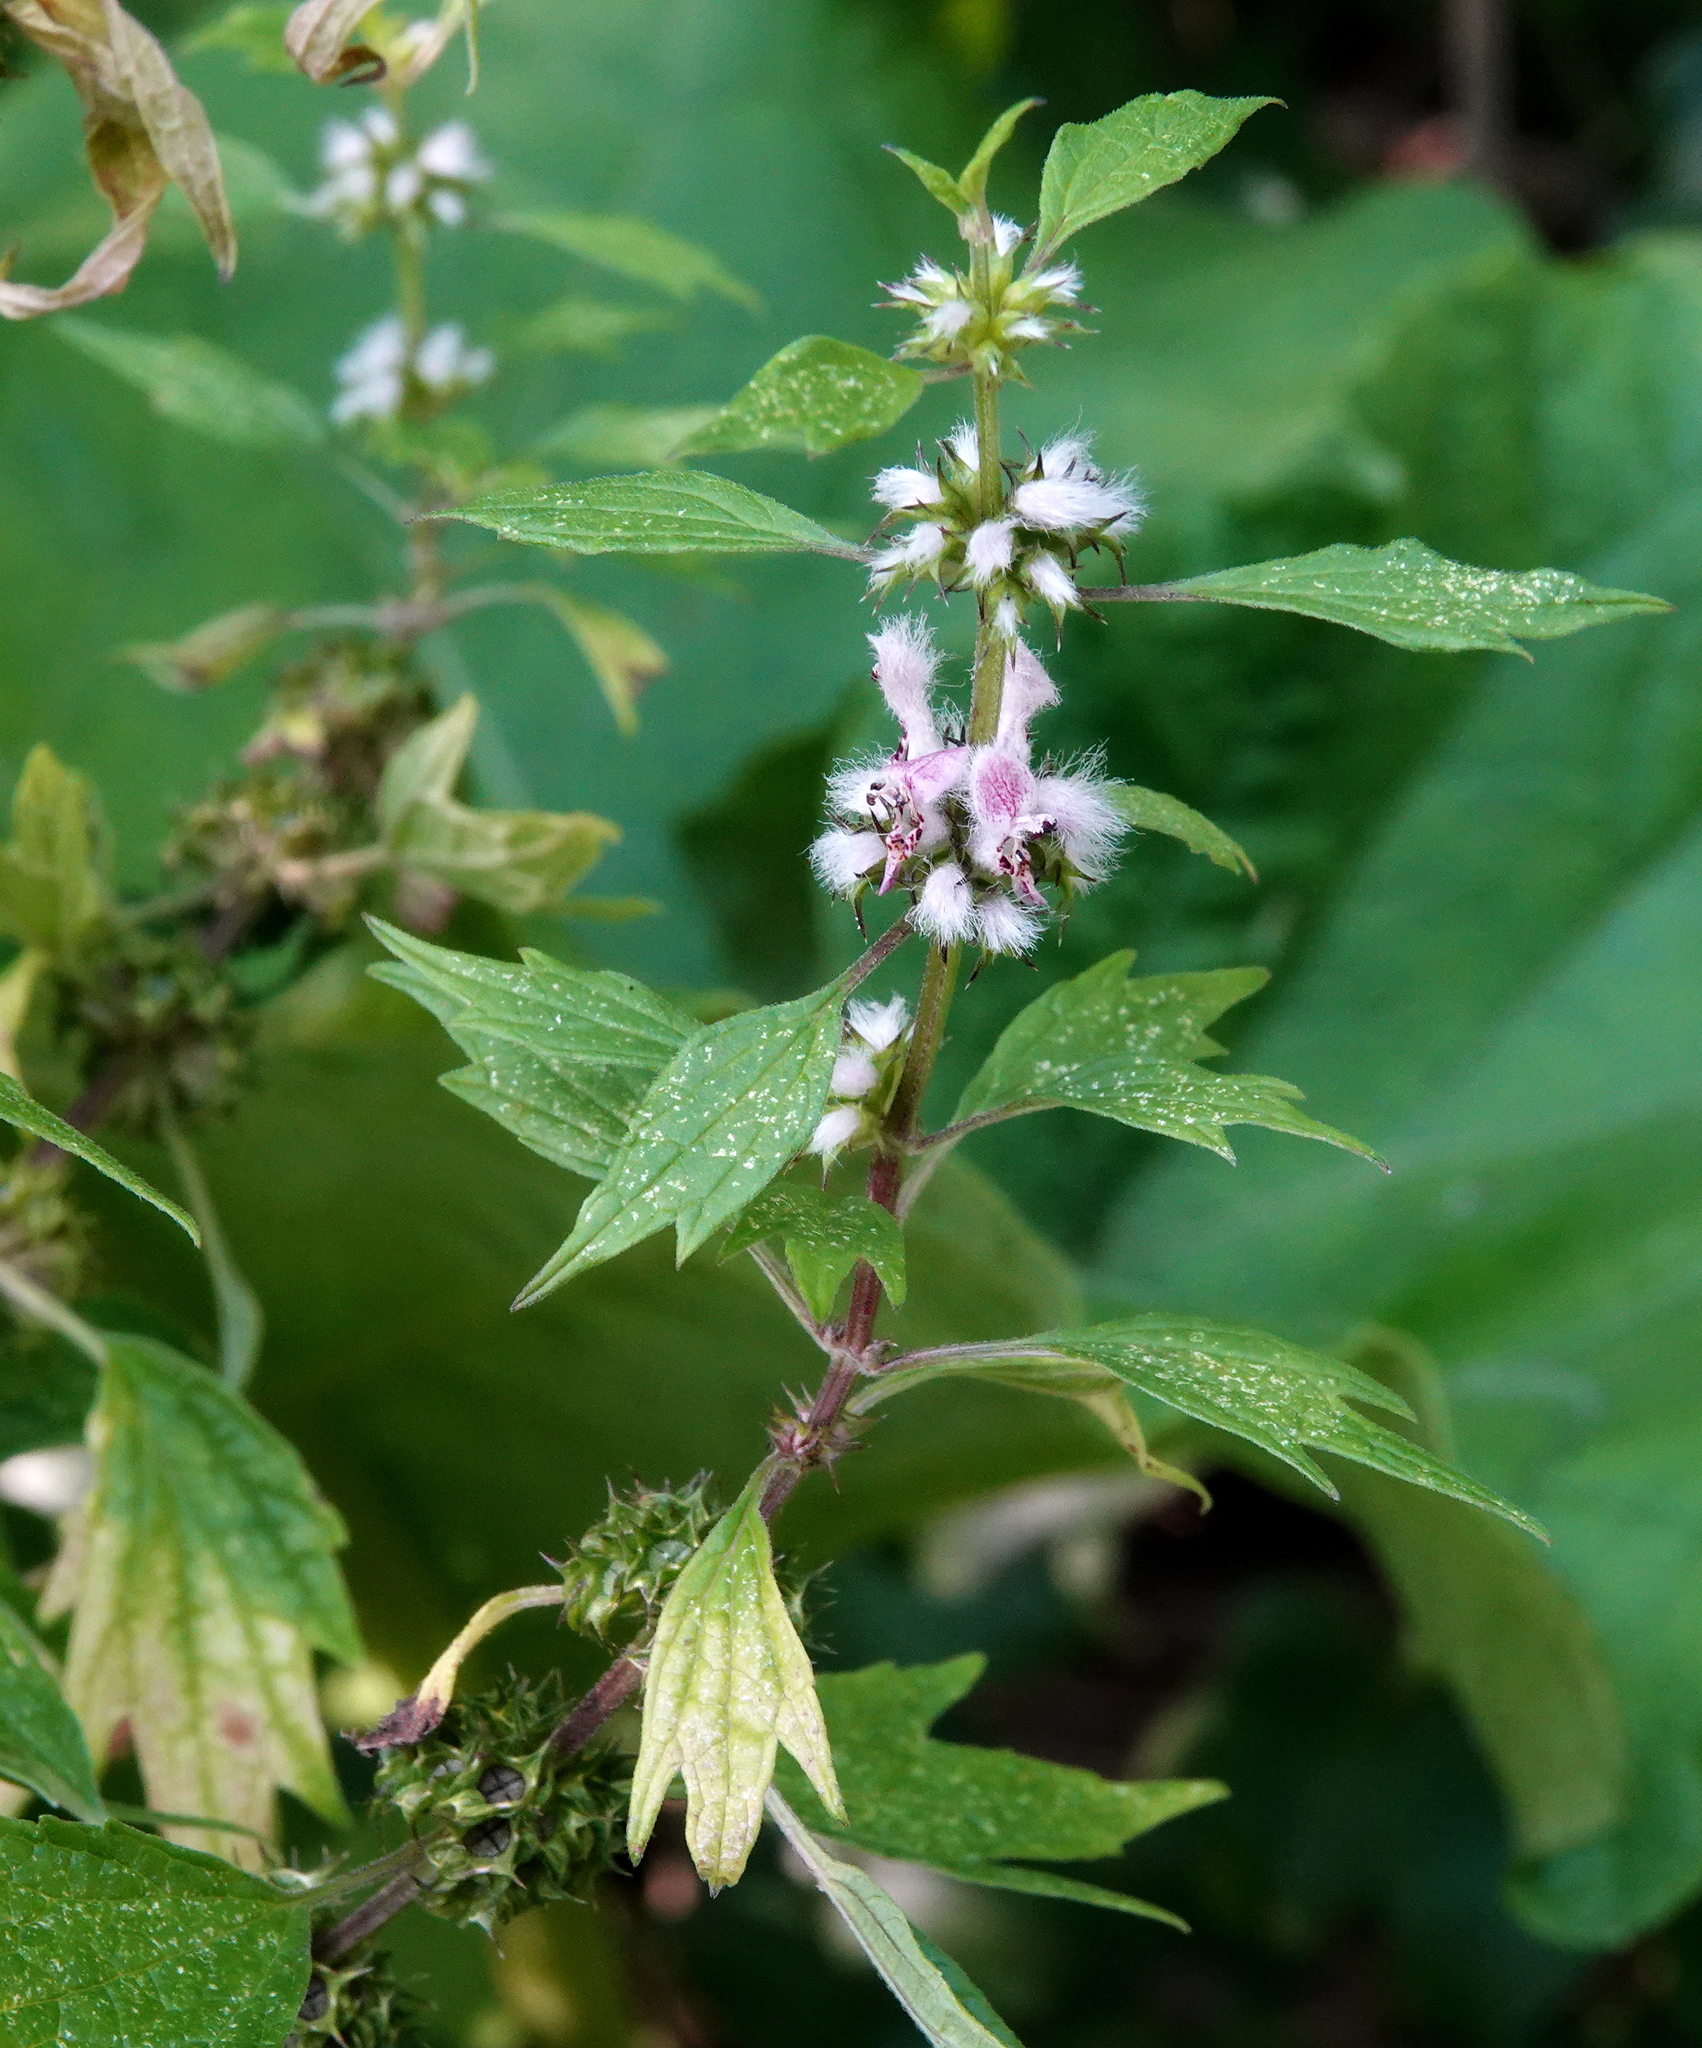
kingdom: Plantae
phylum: Tracheophyta
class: Magnoliopsida
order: Lamiales
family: Lamiaceae
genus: Leonurus
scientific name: Leonurus cardiaca
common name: Motherwort
